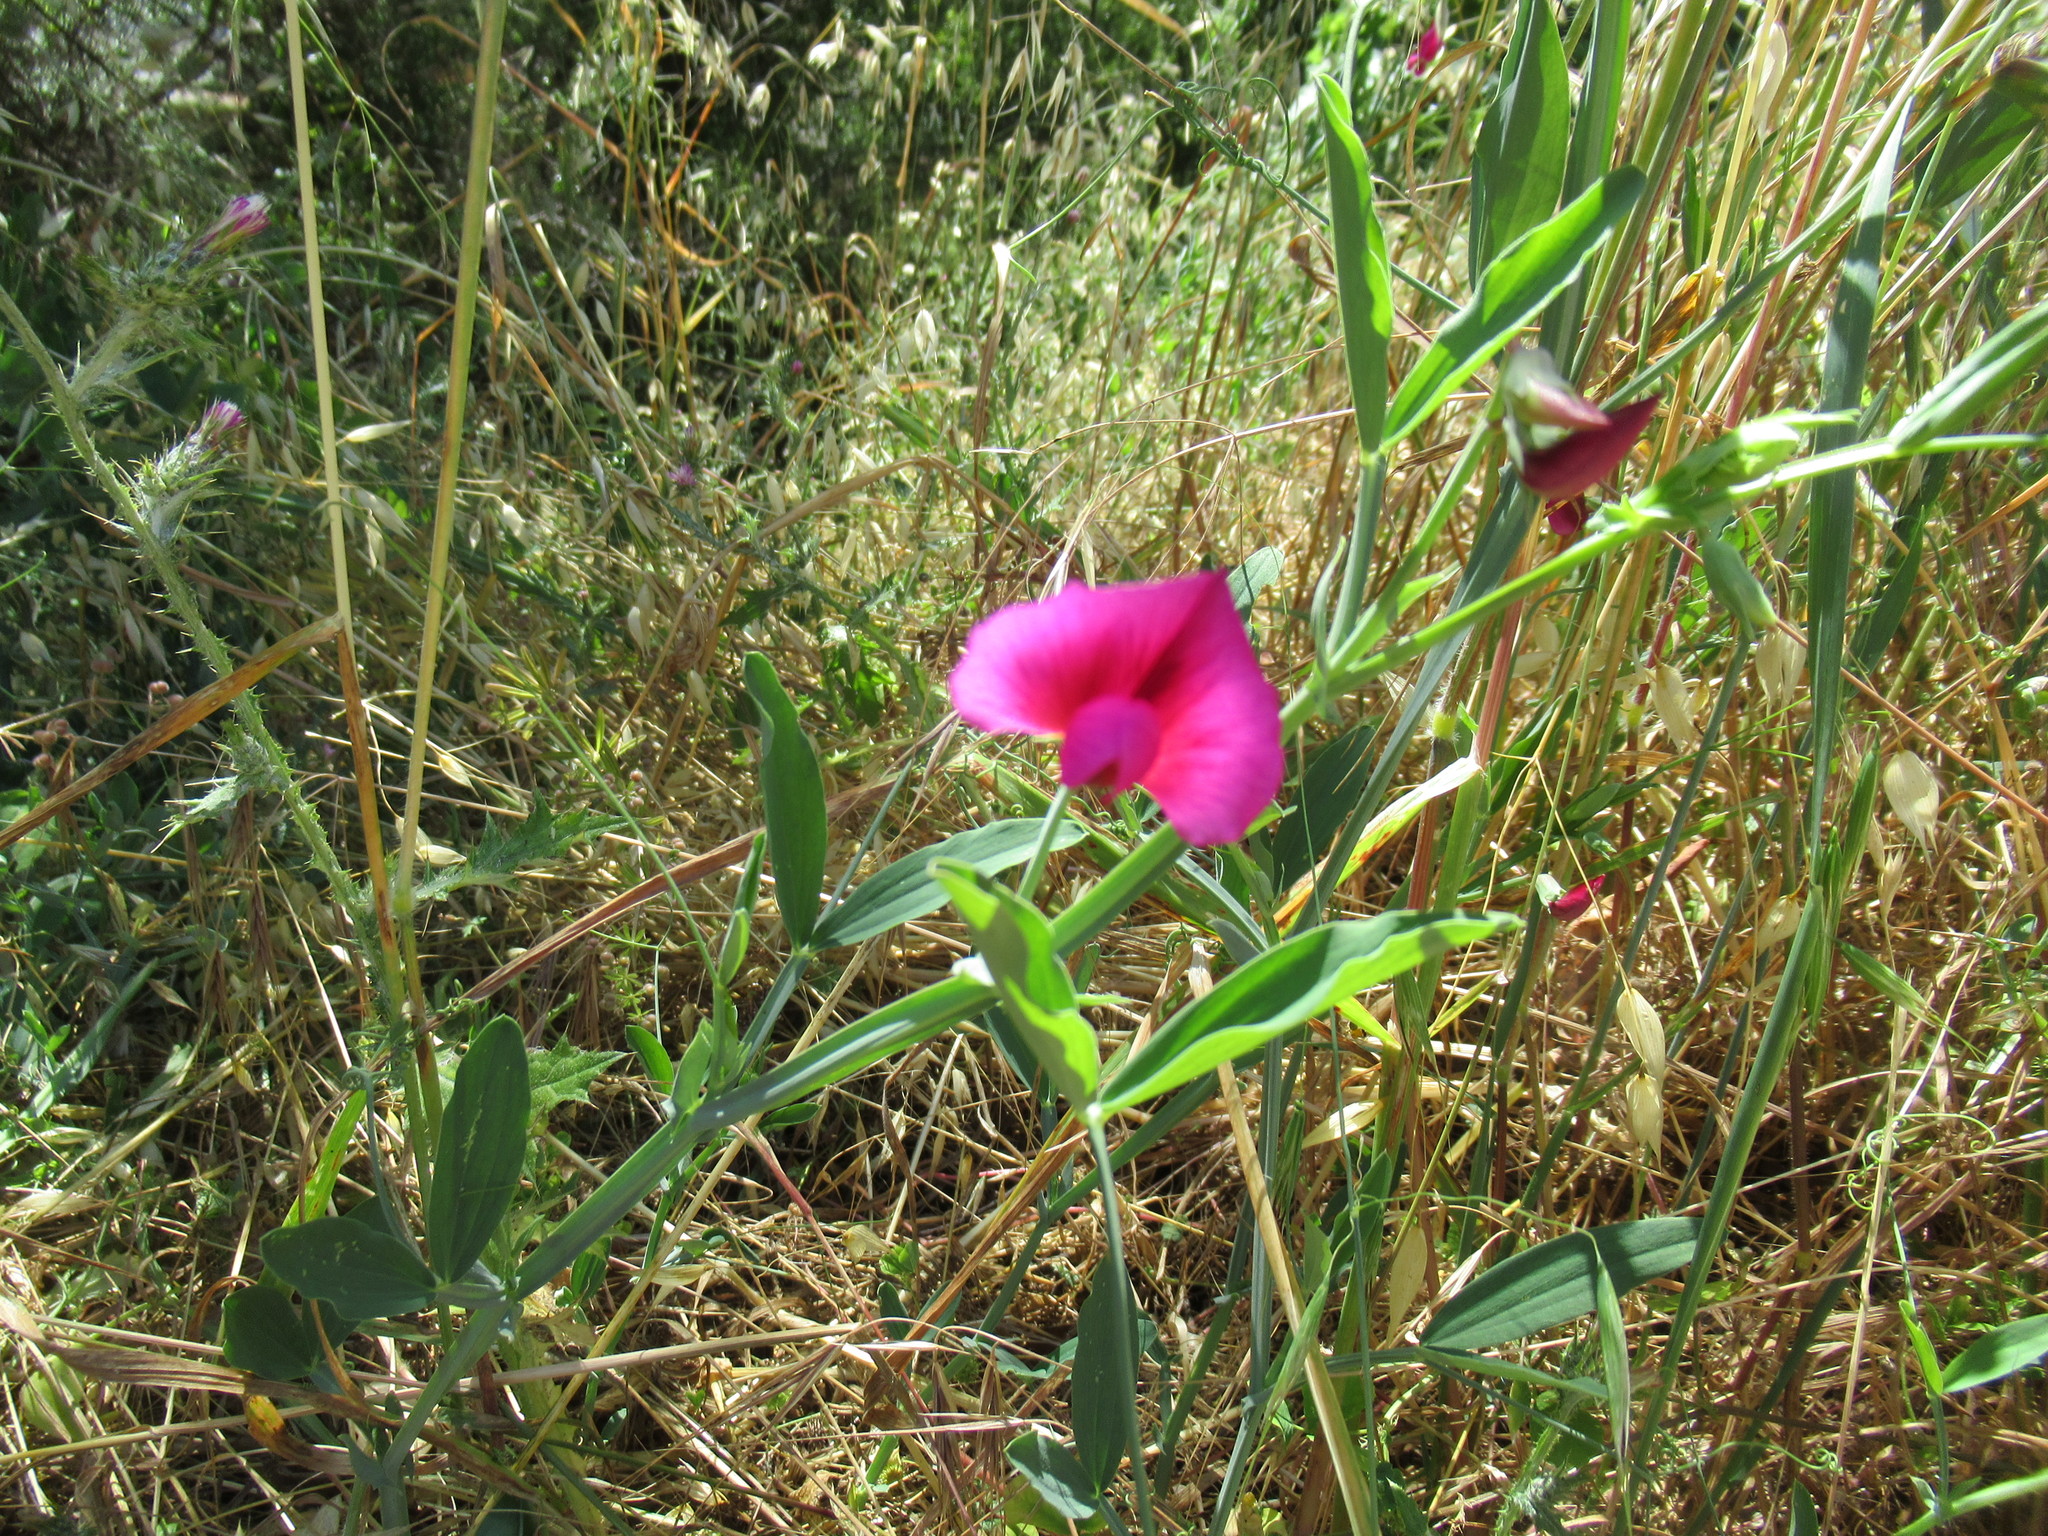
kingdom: Plantae
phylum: Tracheophyta
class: Magnoliopsida
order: Fabales
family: Fabaceae
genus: Lathyrus
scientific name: Lathyrus tingitanus
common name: Tangier pea
